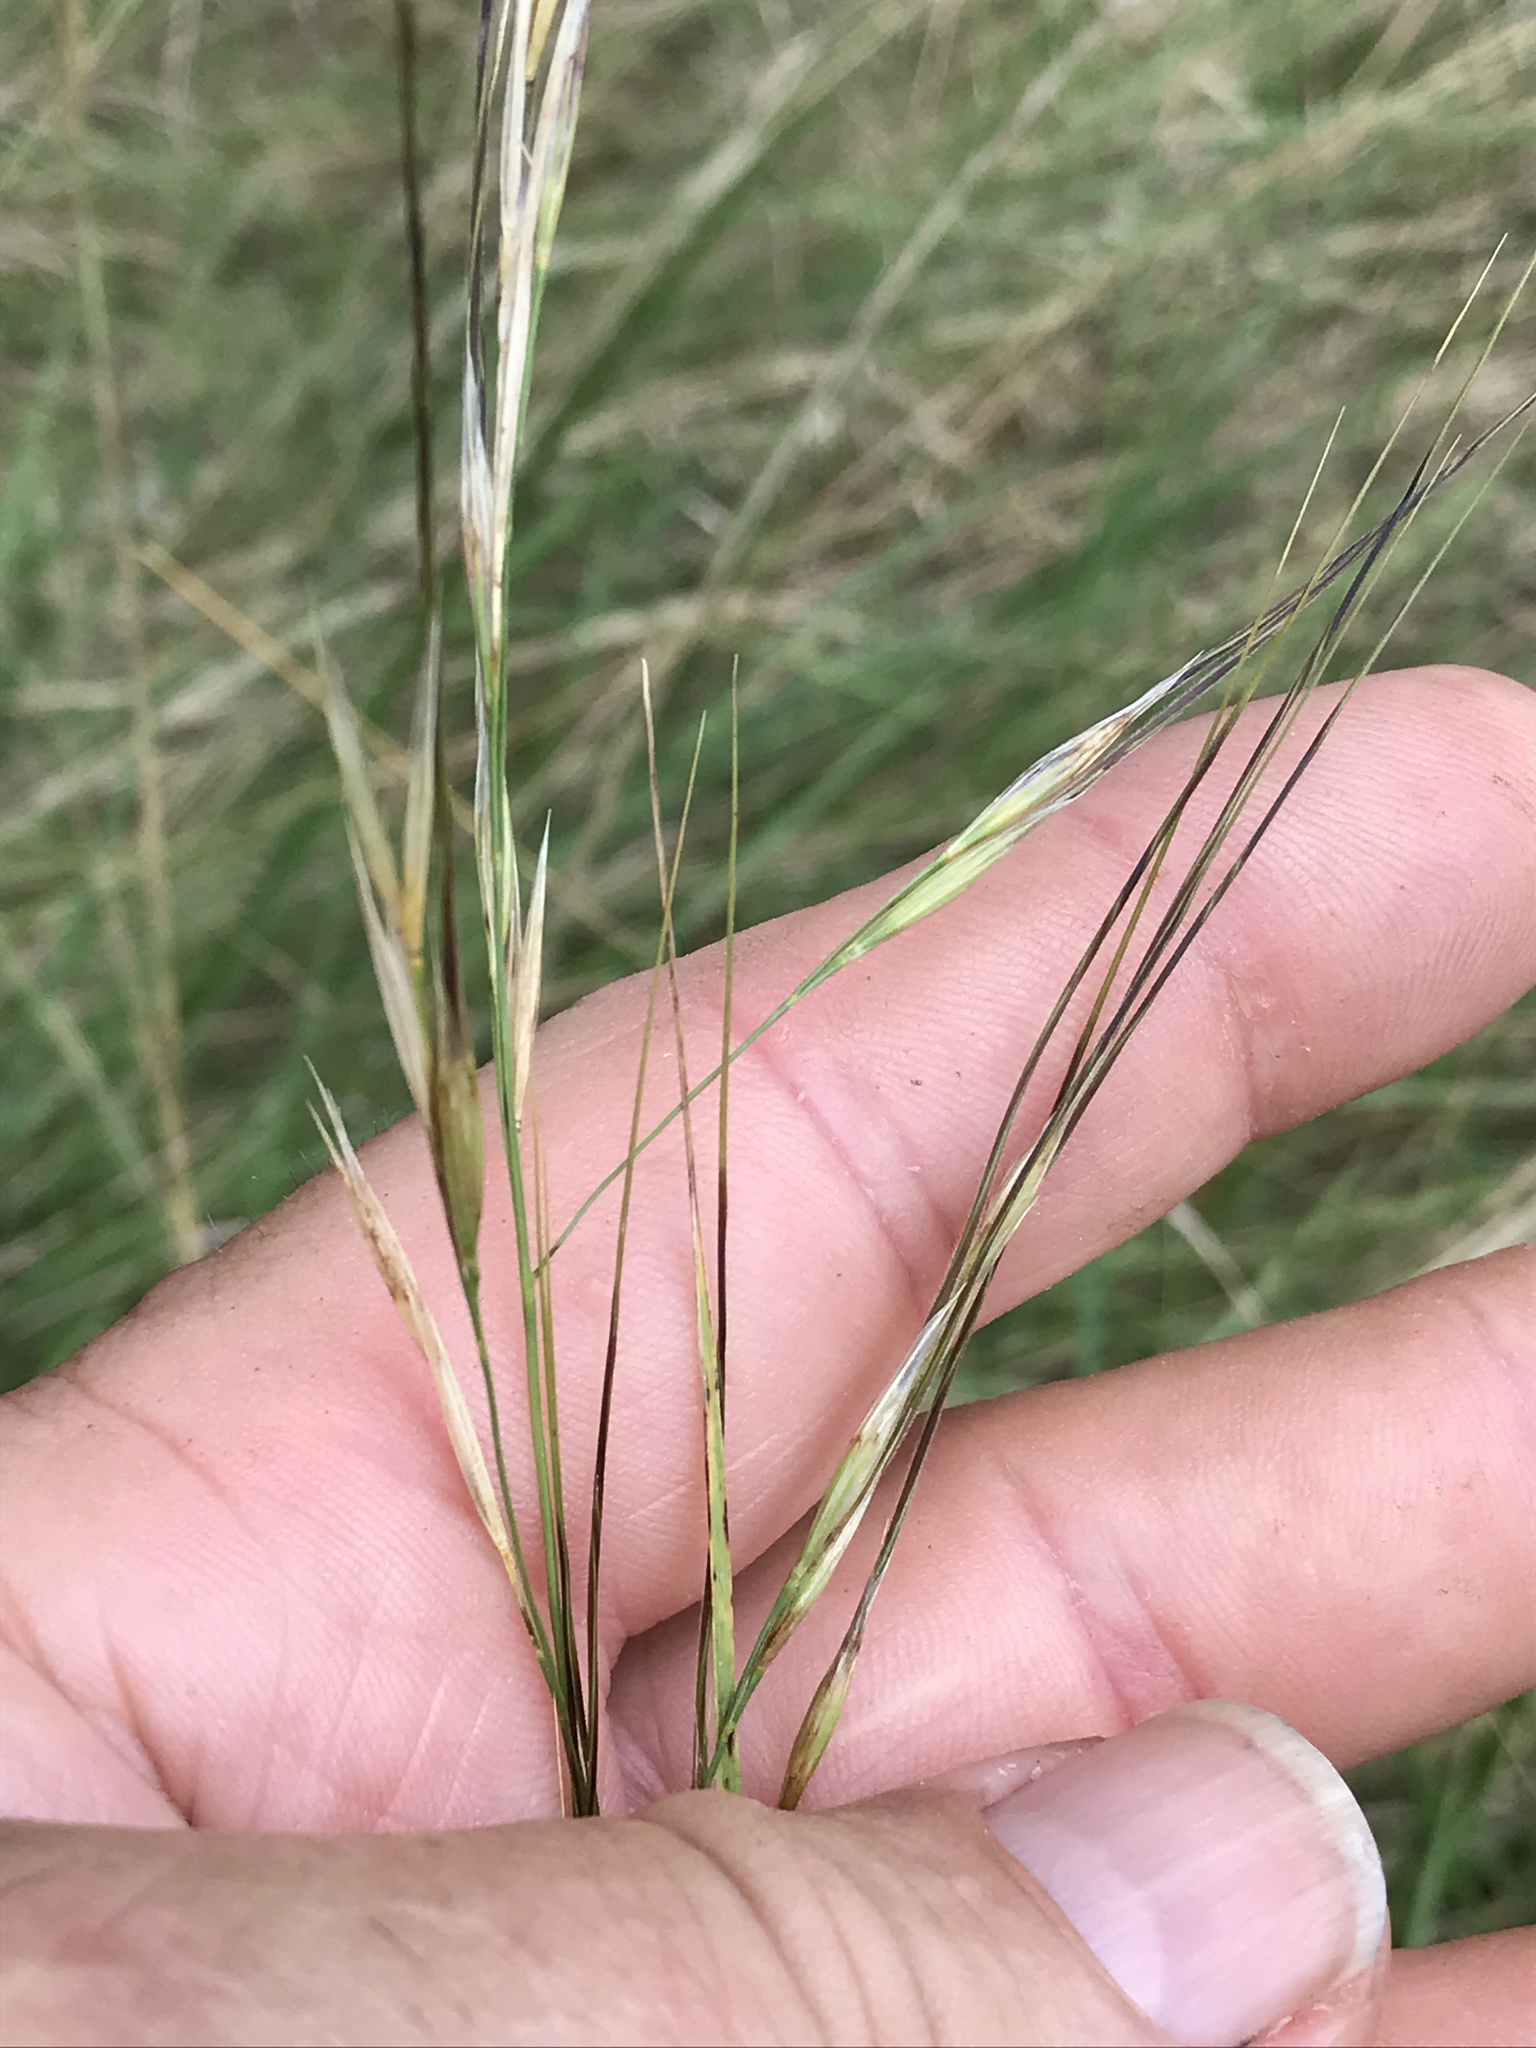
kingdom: Plantae
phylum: Tracheophyta
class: Liliopsida
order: Poales
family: Poaceae
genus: Nassella
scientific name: Nassella leucotricha
